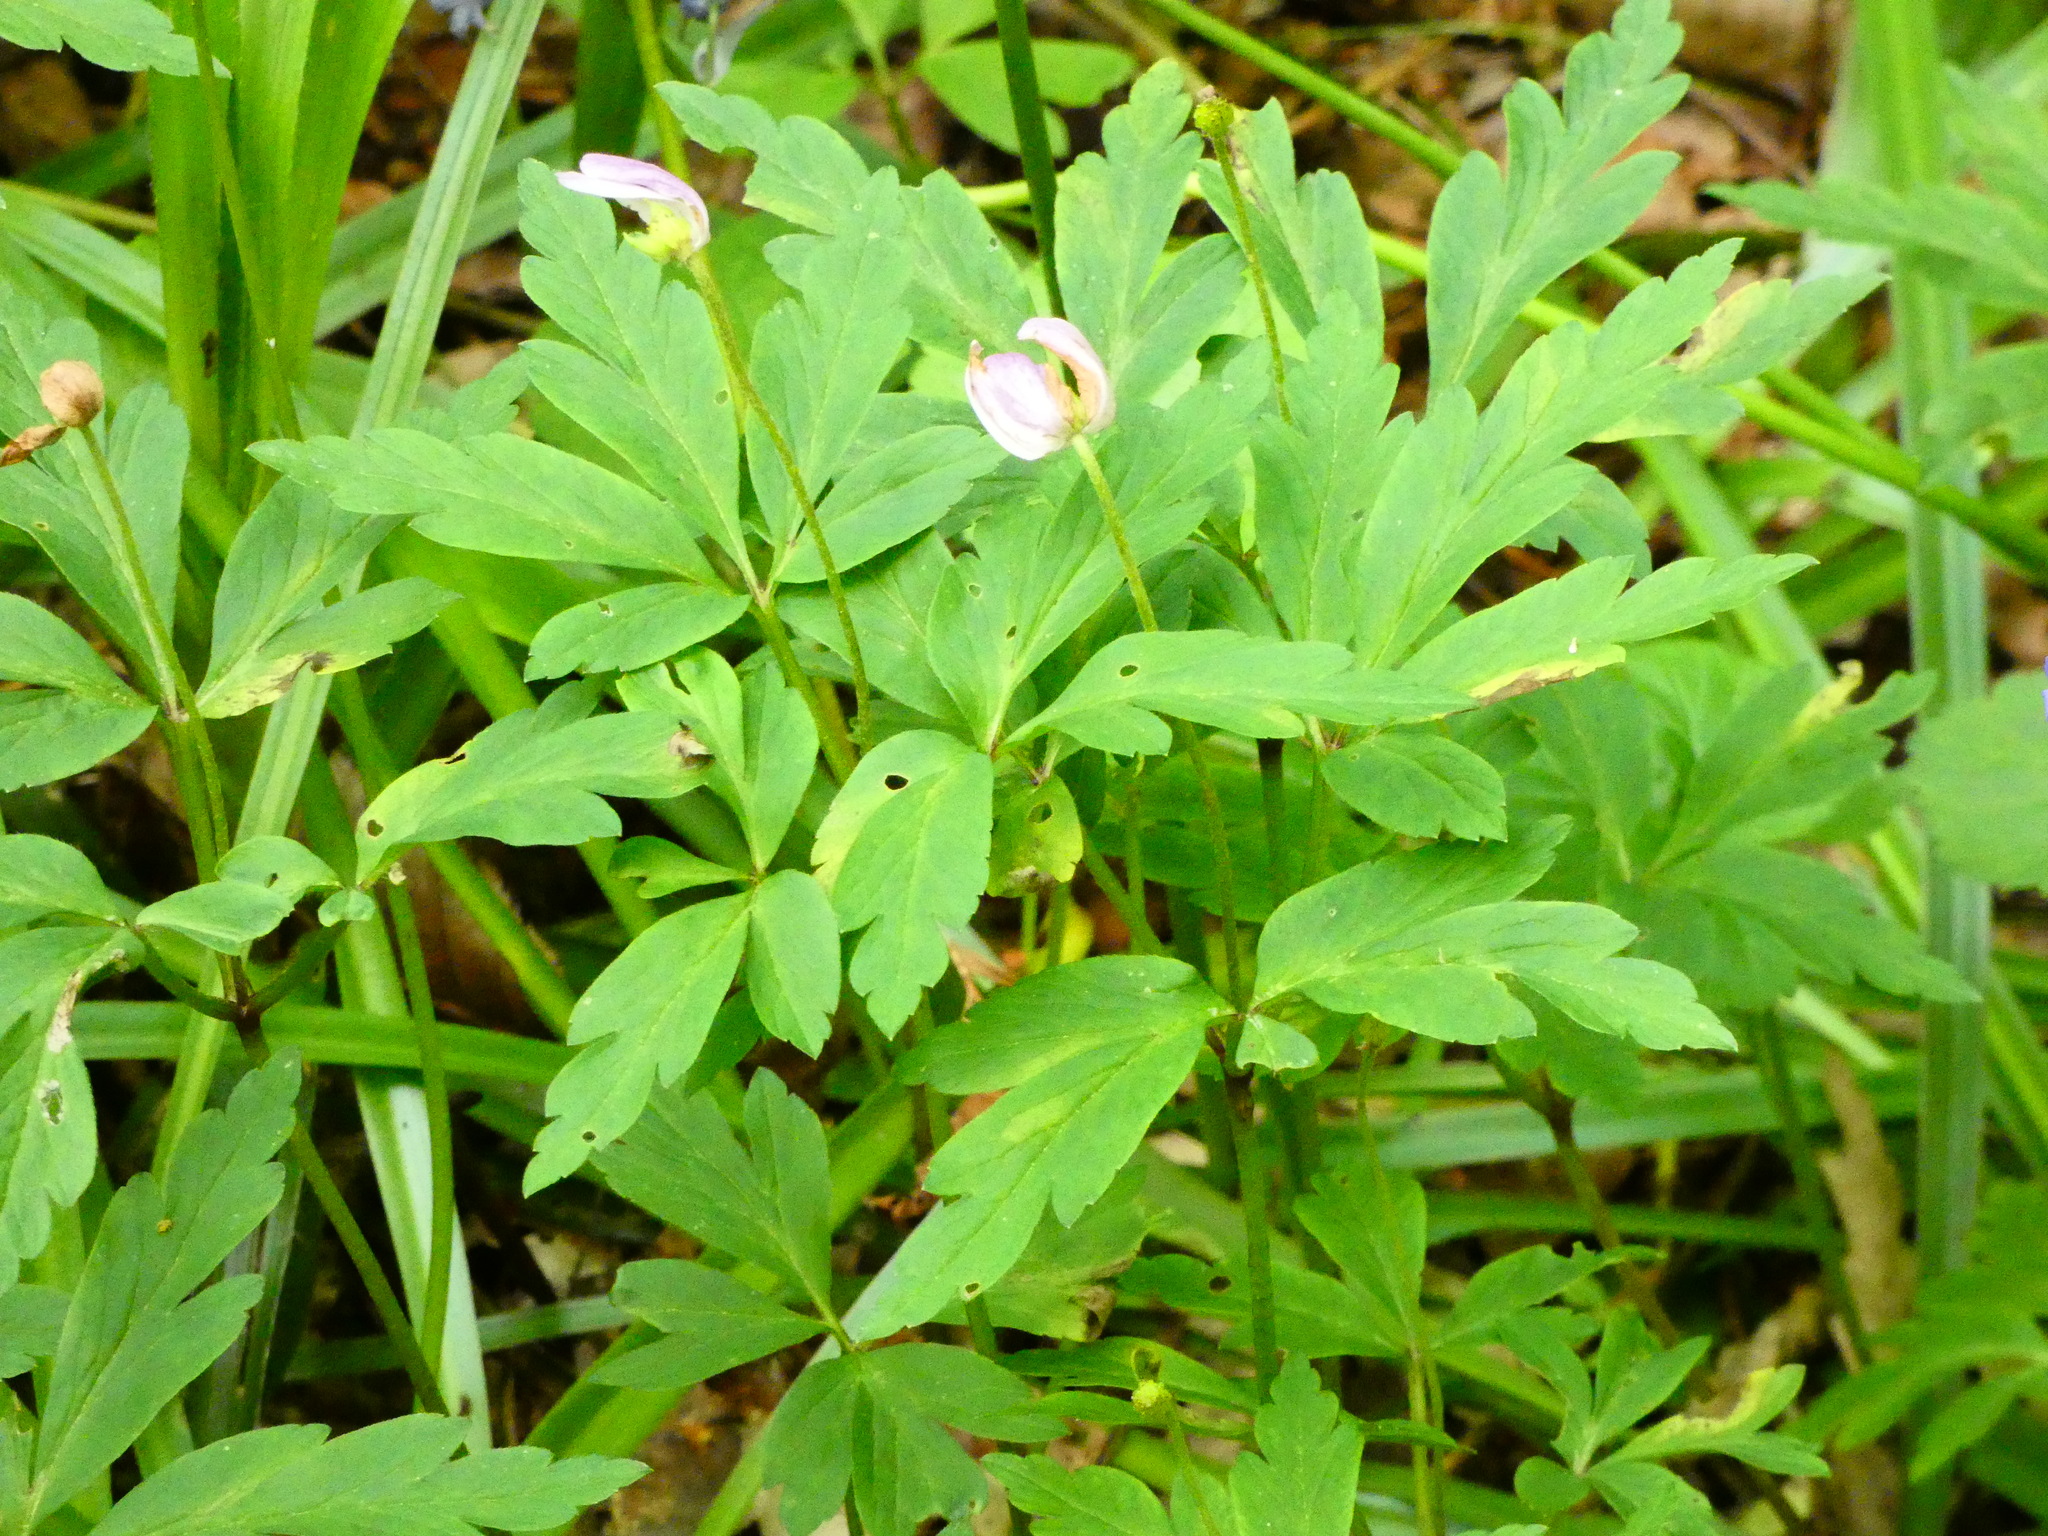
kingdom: Plantae
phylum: Tracheophyta
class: Magnoliopsida
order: Ranunculales
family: Ranunculaceae
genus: Anemone
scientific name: Anemone nemorosa
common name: Wood anemone
